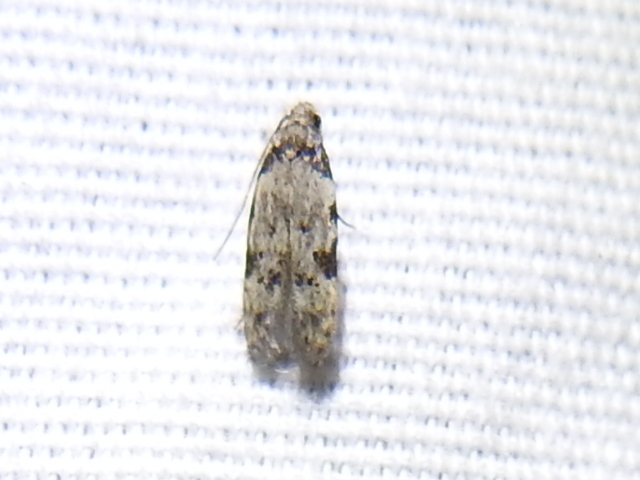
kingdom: Animalia
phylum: Arthropoda
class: Insecta
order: Lepidoptera
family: Autostichidae
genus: Taygete
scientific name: Taygete attributella
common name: Triangle-marked twirler moth
